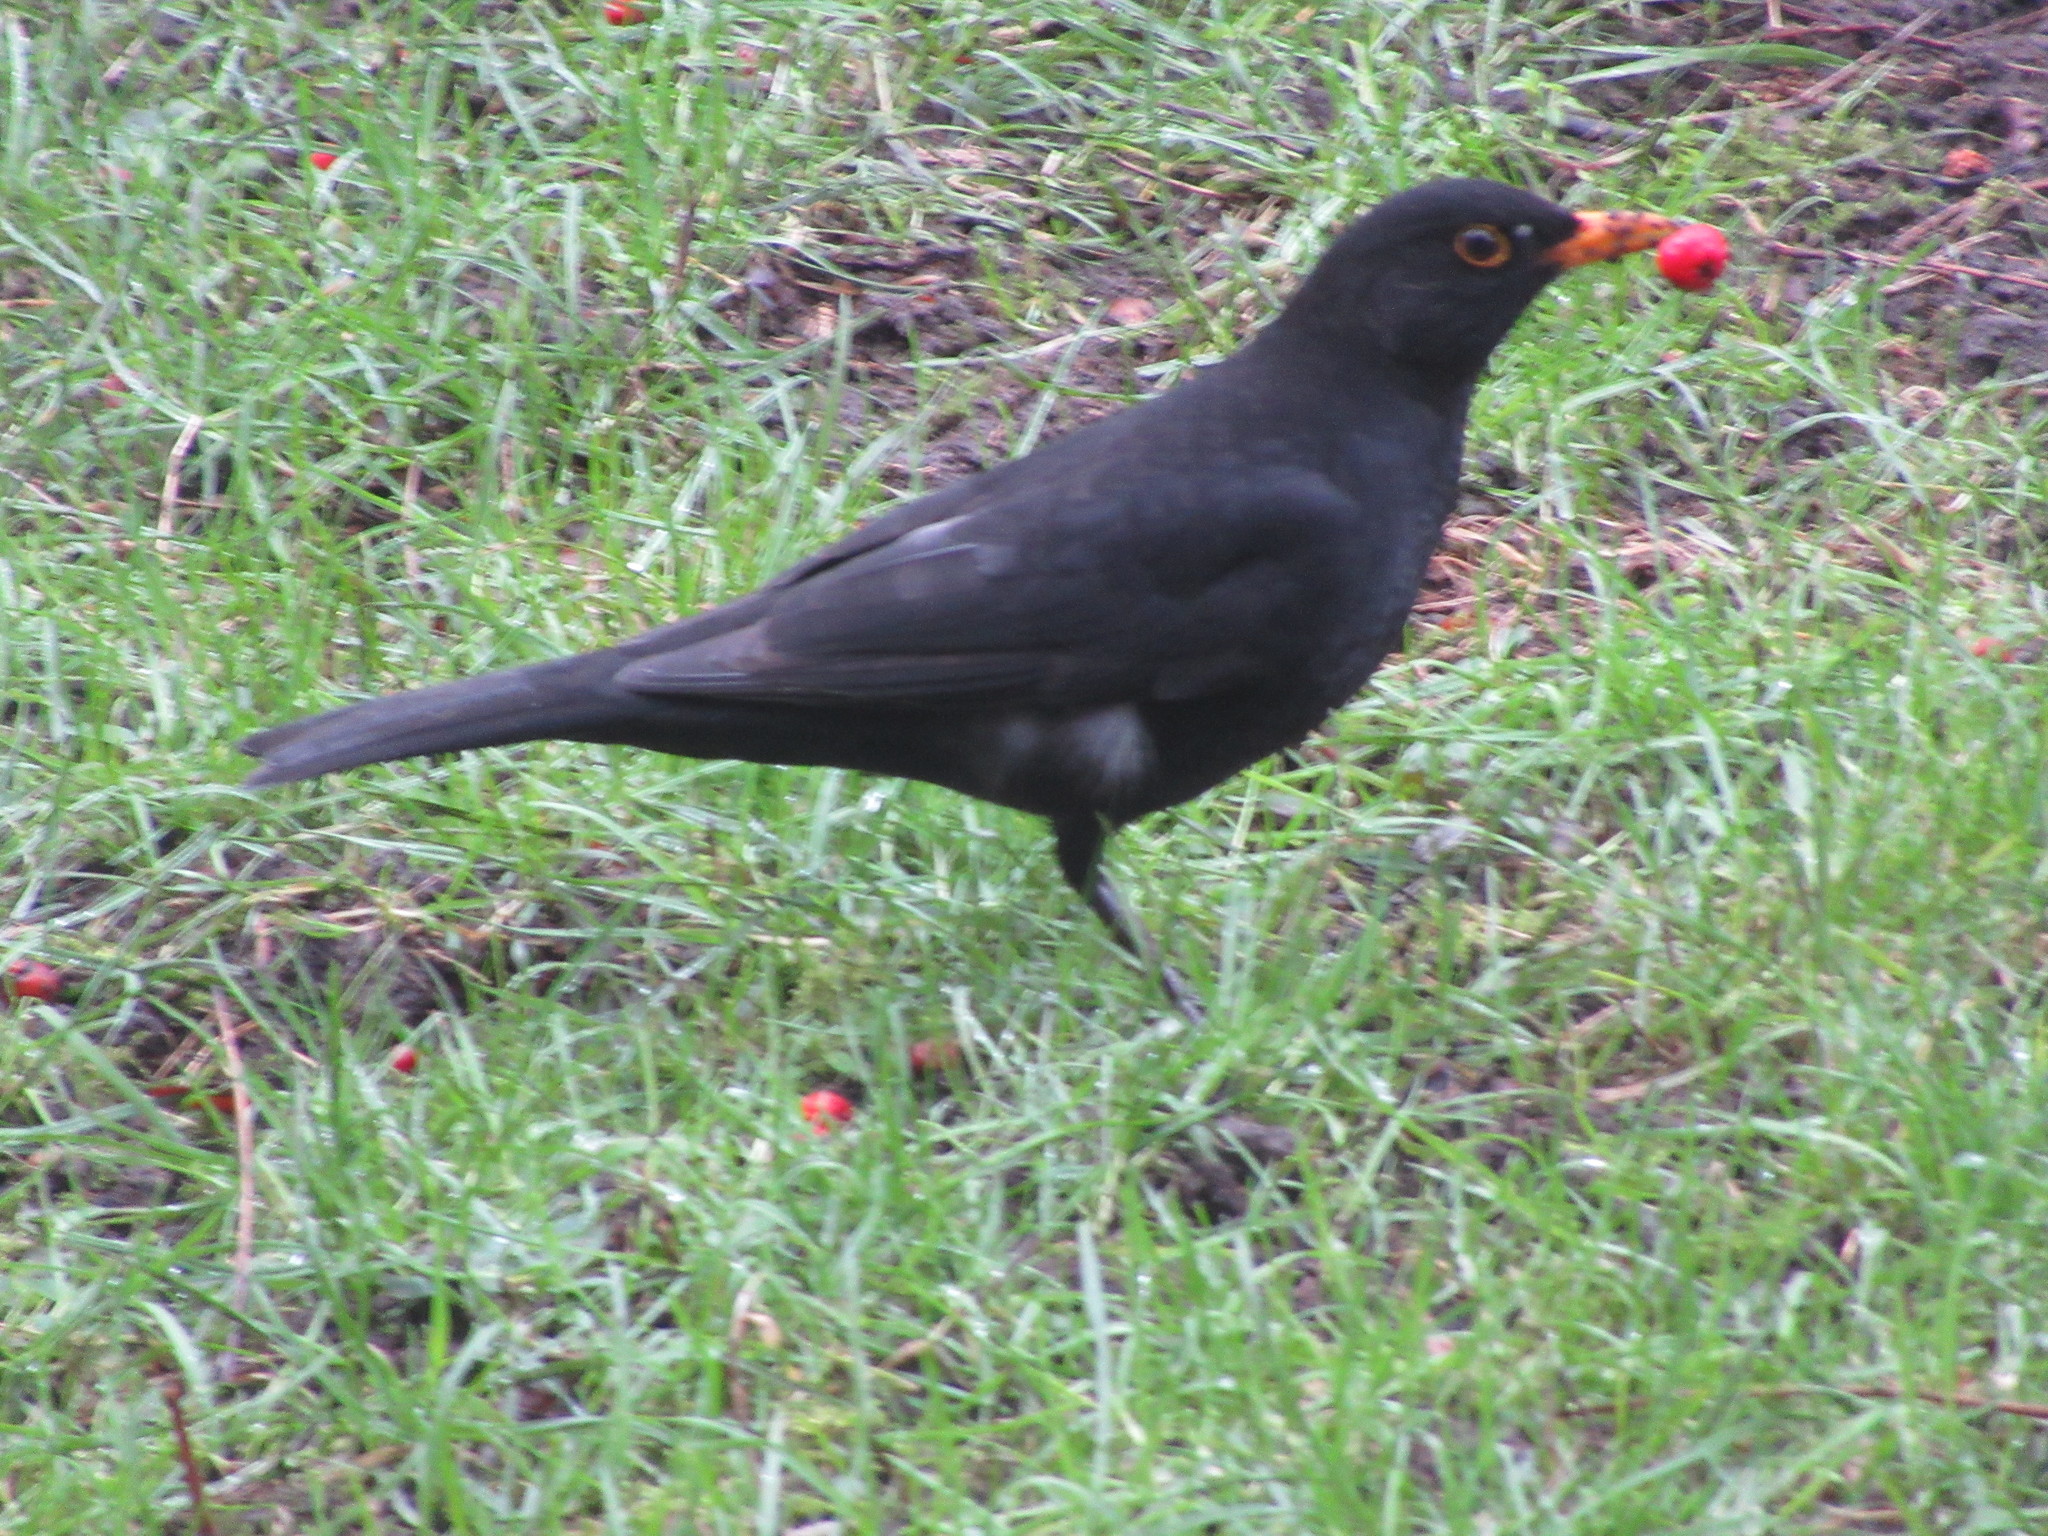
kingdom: Animalia
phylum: Chordata
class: Aves
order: Passeriformes
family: Turdidae
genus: Turdus
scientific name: Turdus merula
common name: Common blackbird
